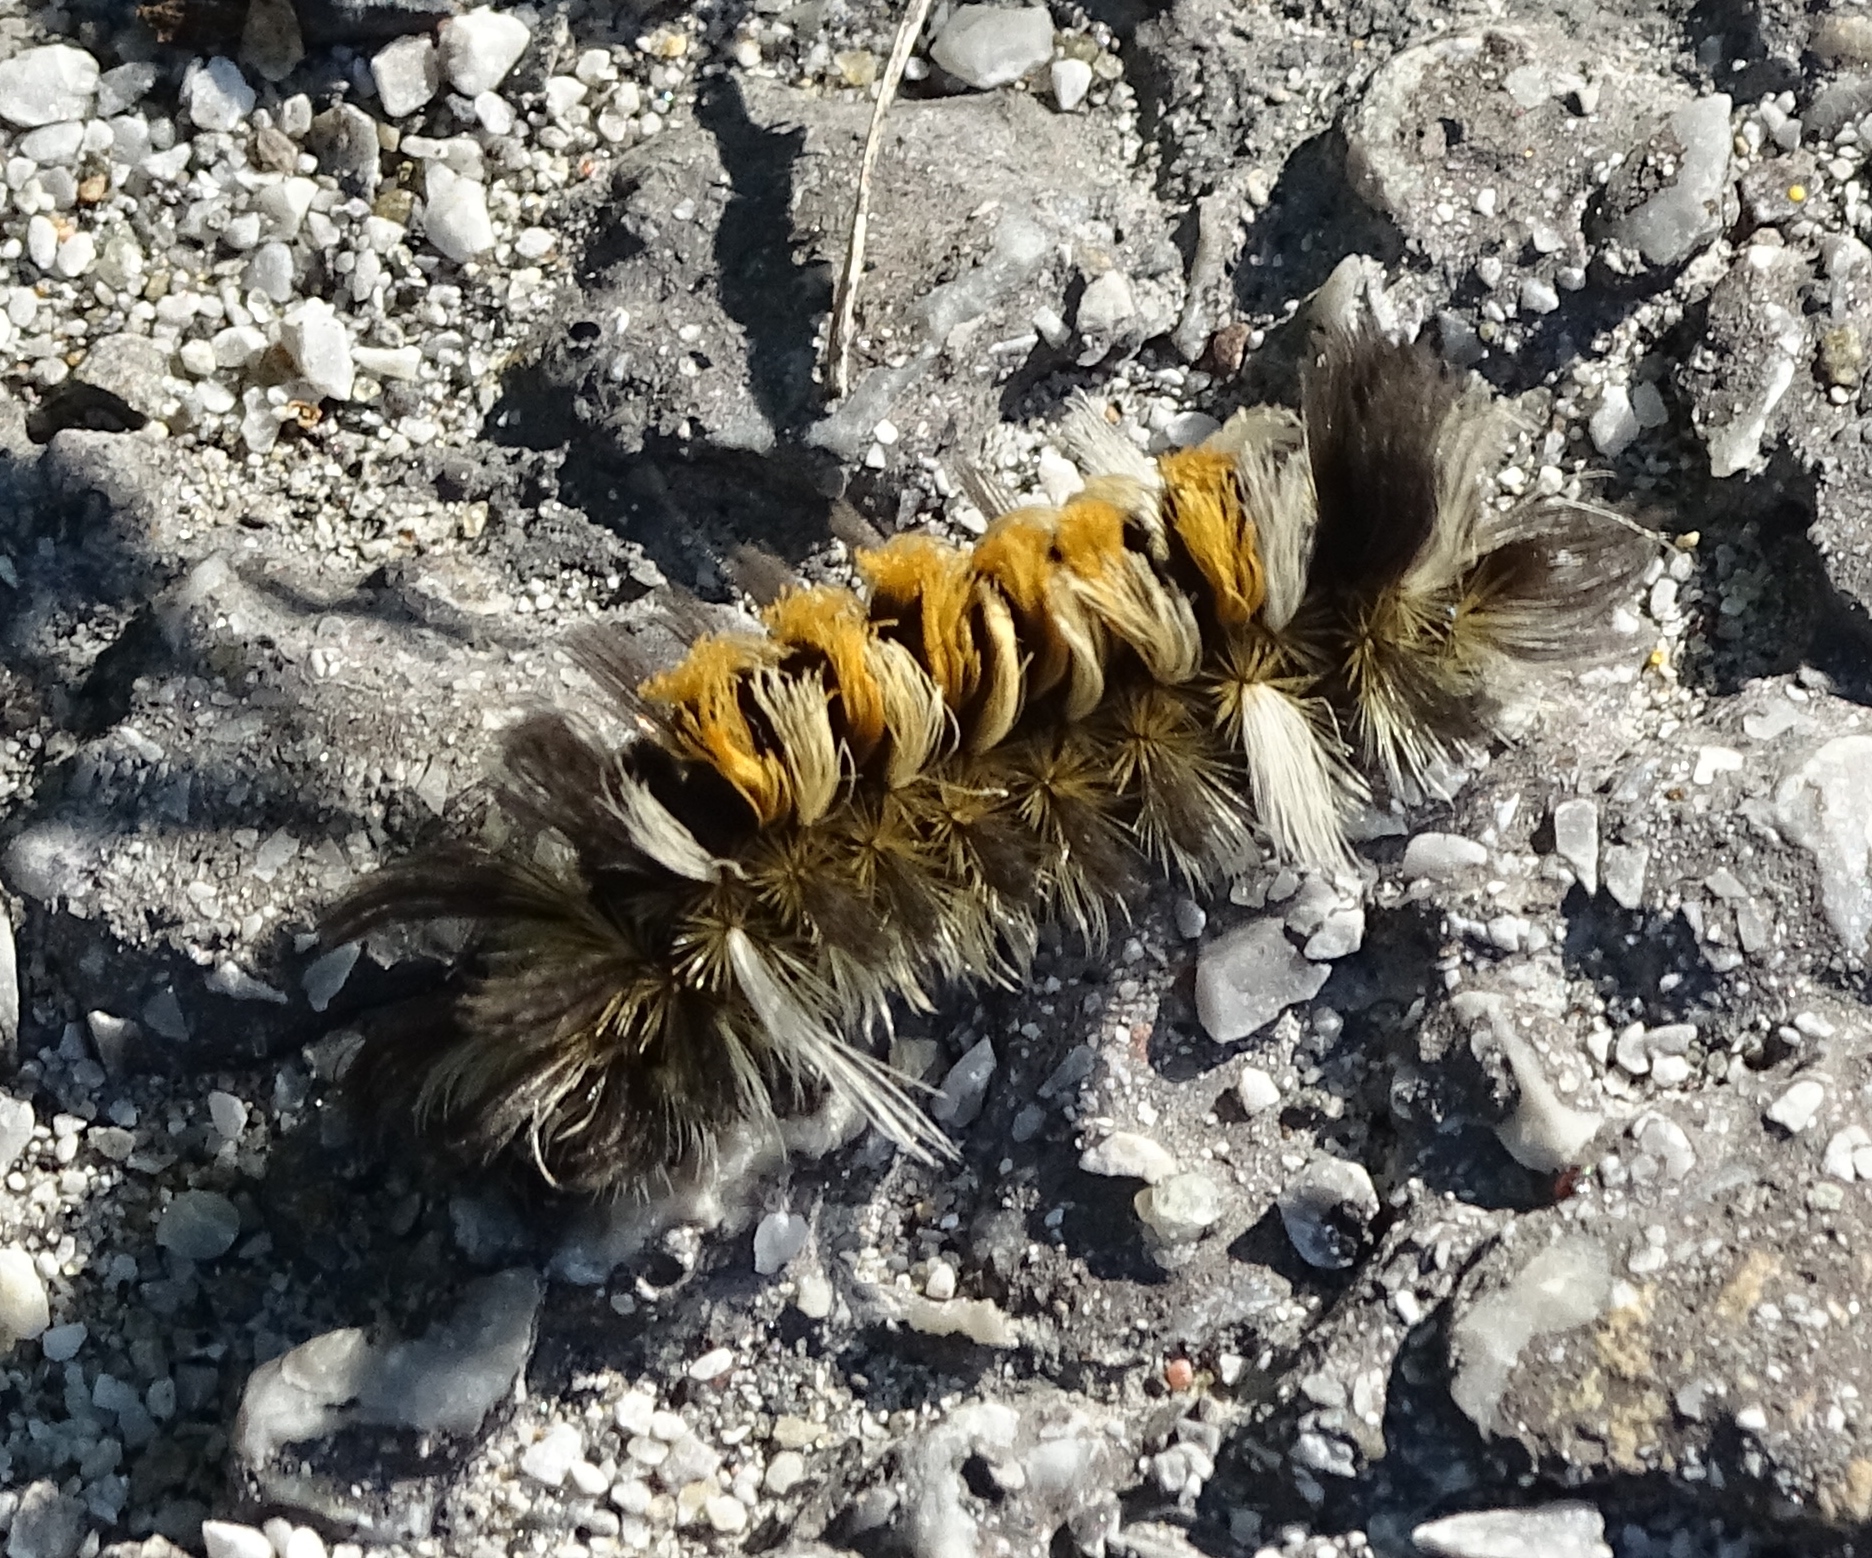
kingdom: Animalia
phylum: Arthropoda
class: Insecta
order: Lepidoptera
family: Erebidae
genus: Euchaetes
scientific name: Euchaetes egle
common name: Milkweed tussock moth
